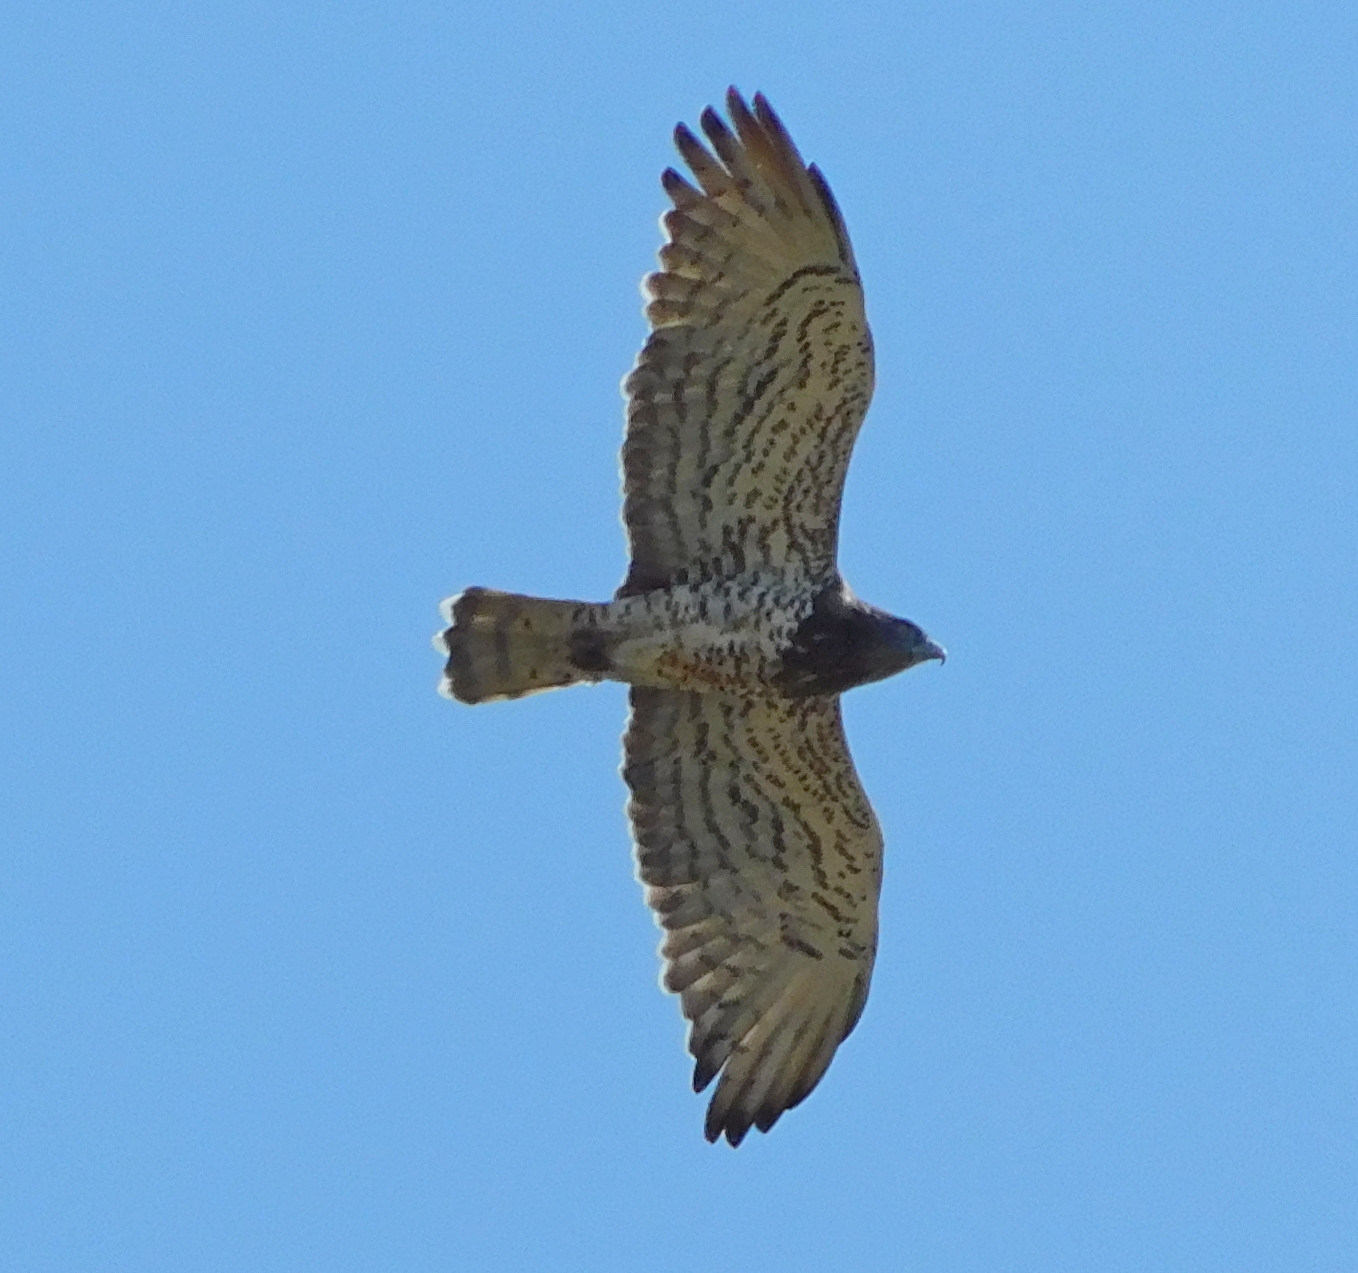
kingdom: Animalia
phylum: Chordata
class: Aves
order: Accipitriformes
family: Accipitridae
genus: Circaetus
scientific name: Circaetus gallicus
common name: Short-toed snake eagle
